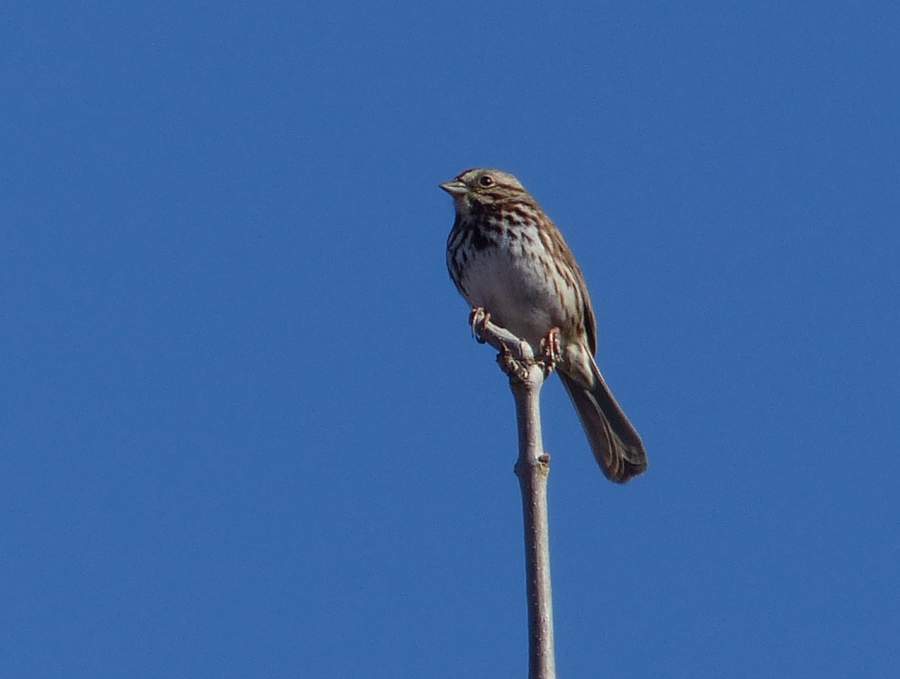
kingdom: Animalia
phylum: Chordata
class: Aves
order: Passeriformes
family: Passerellidae
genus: Melospiza
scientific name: Melospiza melodia
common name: Song sparrow
